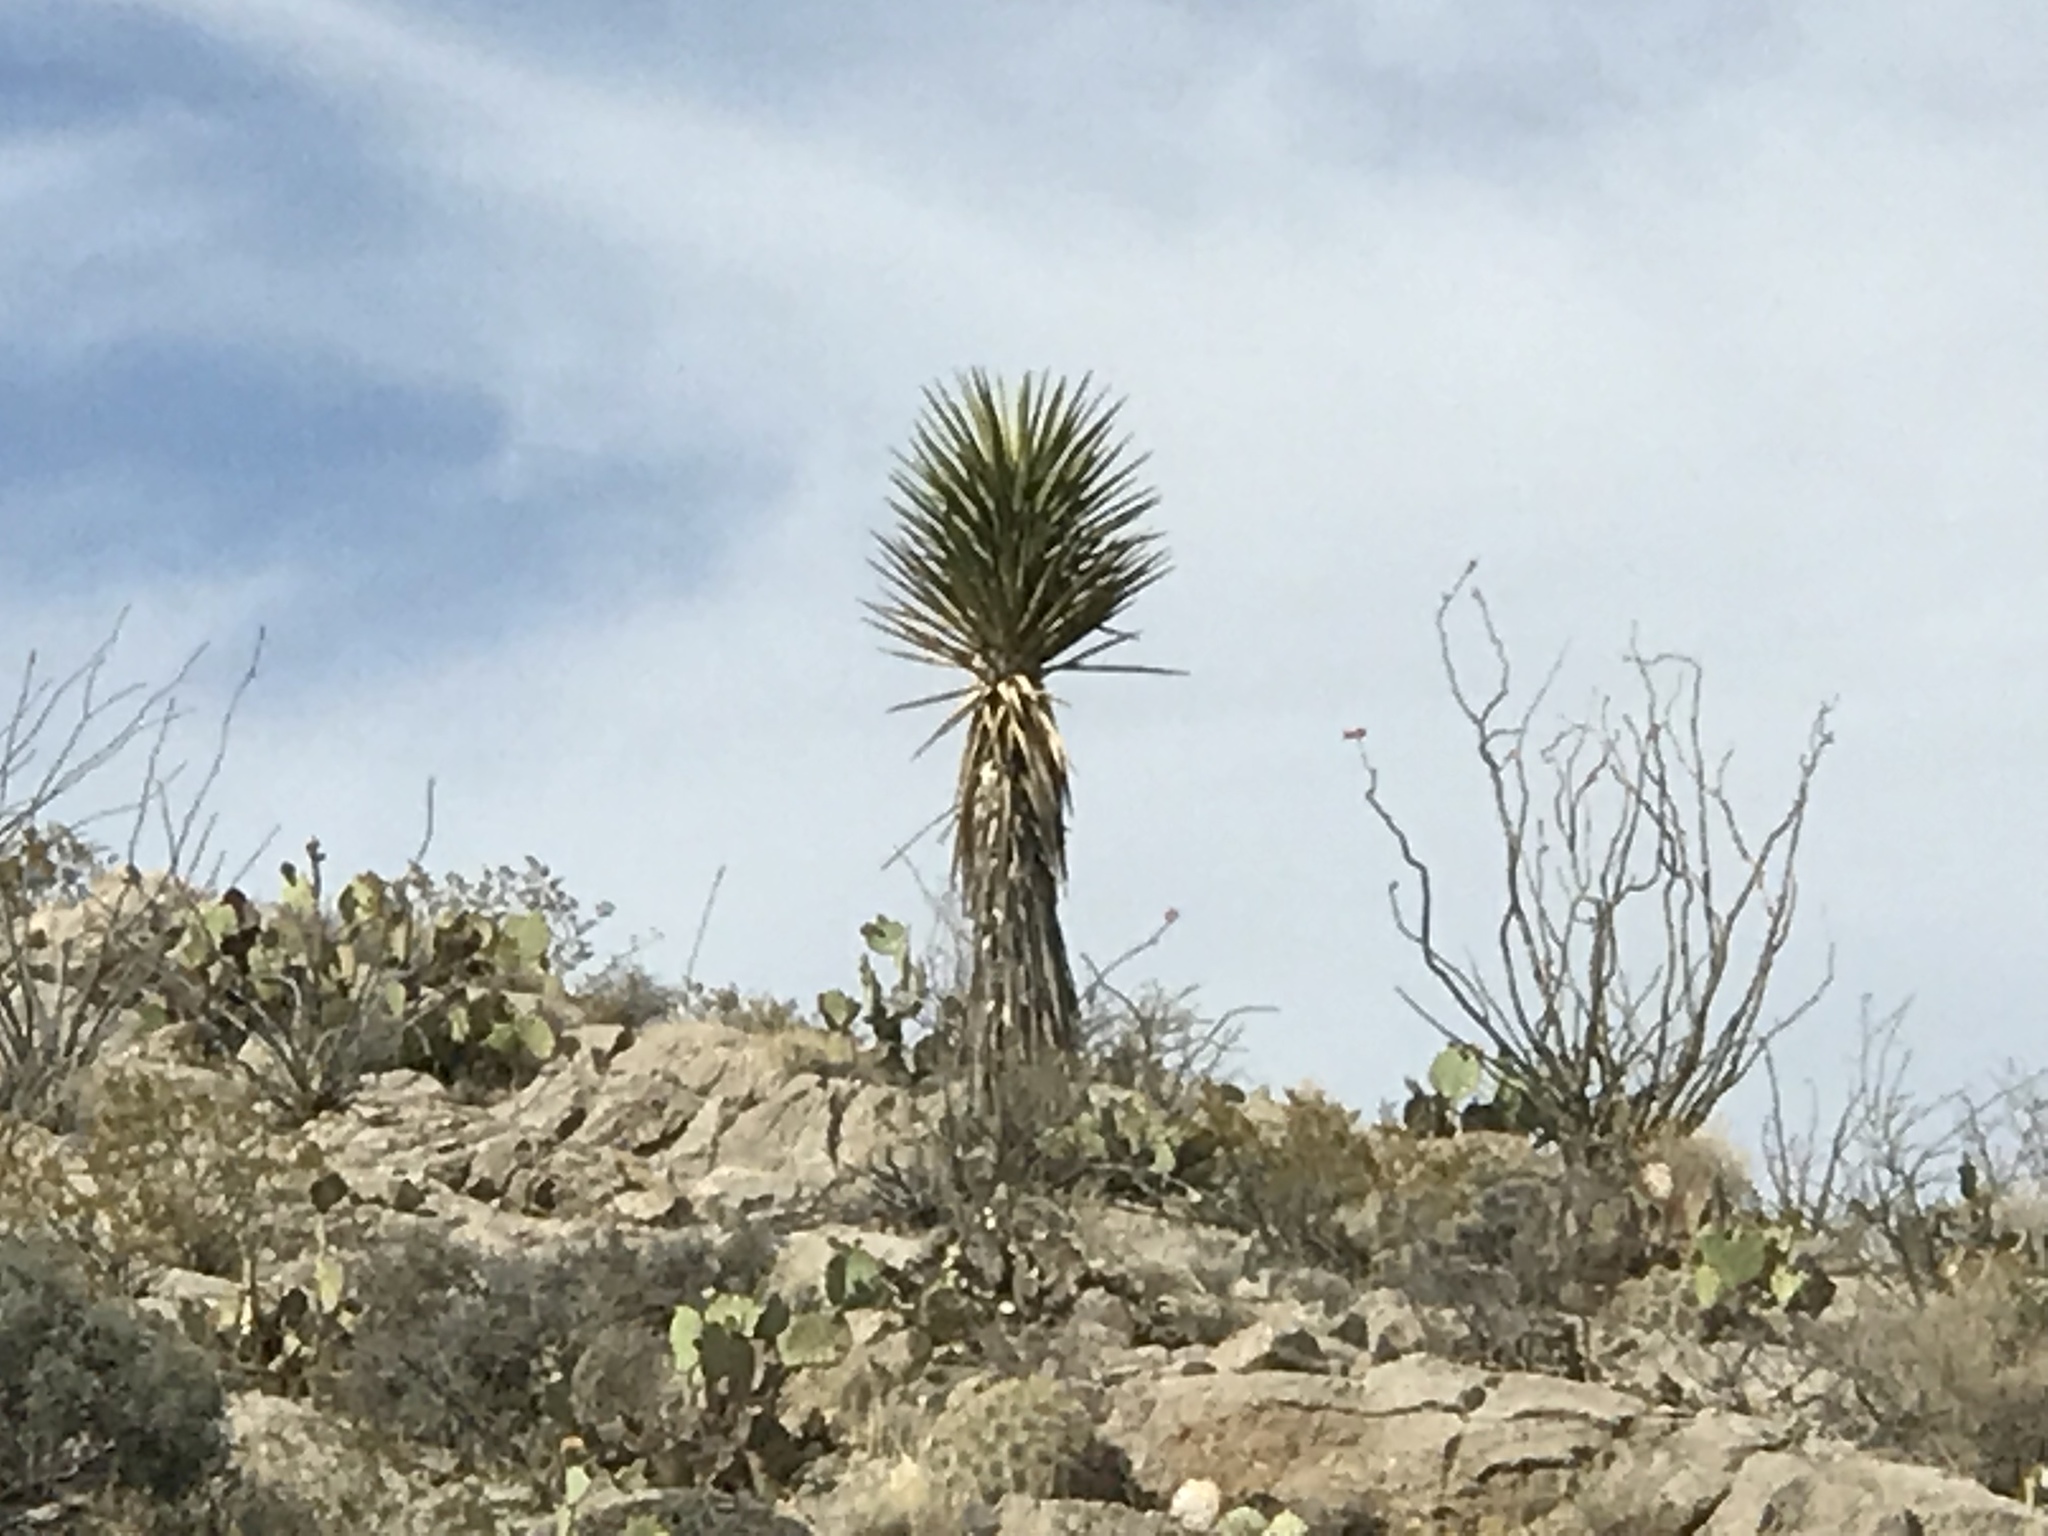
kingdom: Plantae
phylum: Tracheophyta
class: Liliopsida
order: Asparagales
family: Asparagaceae
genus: Yucca
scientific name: Yucca treculiana
